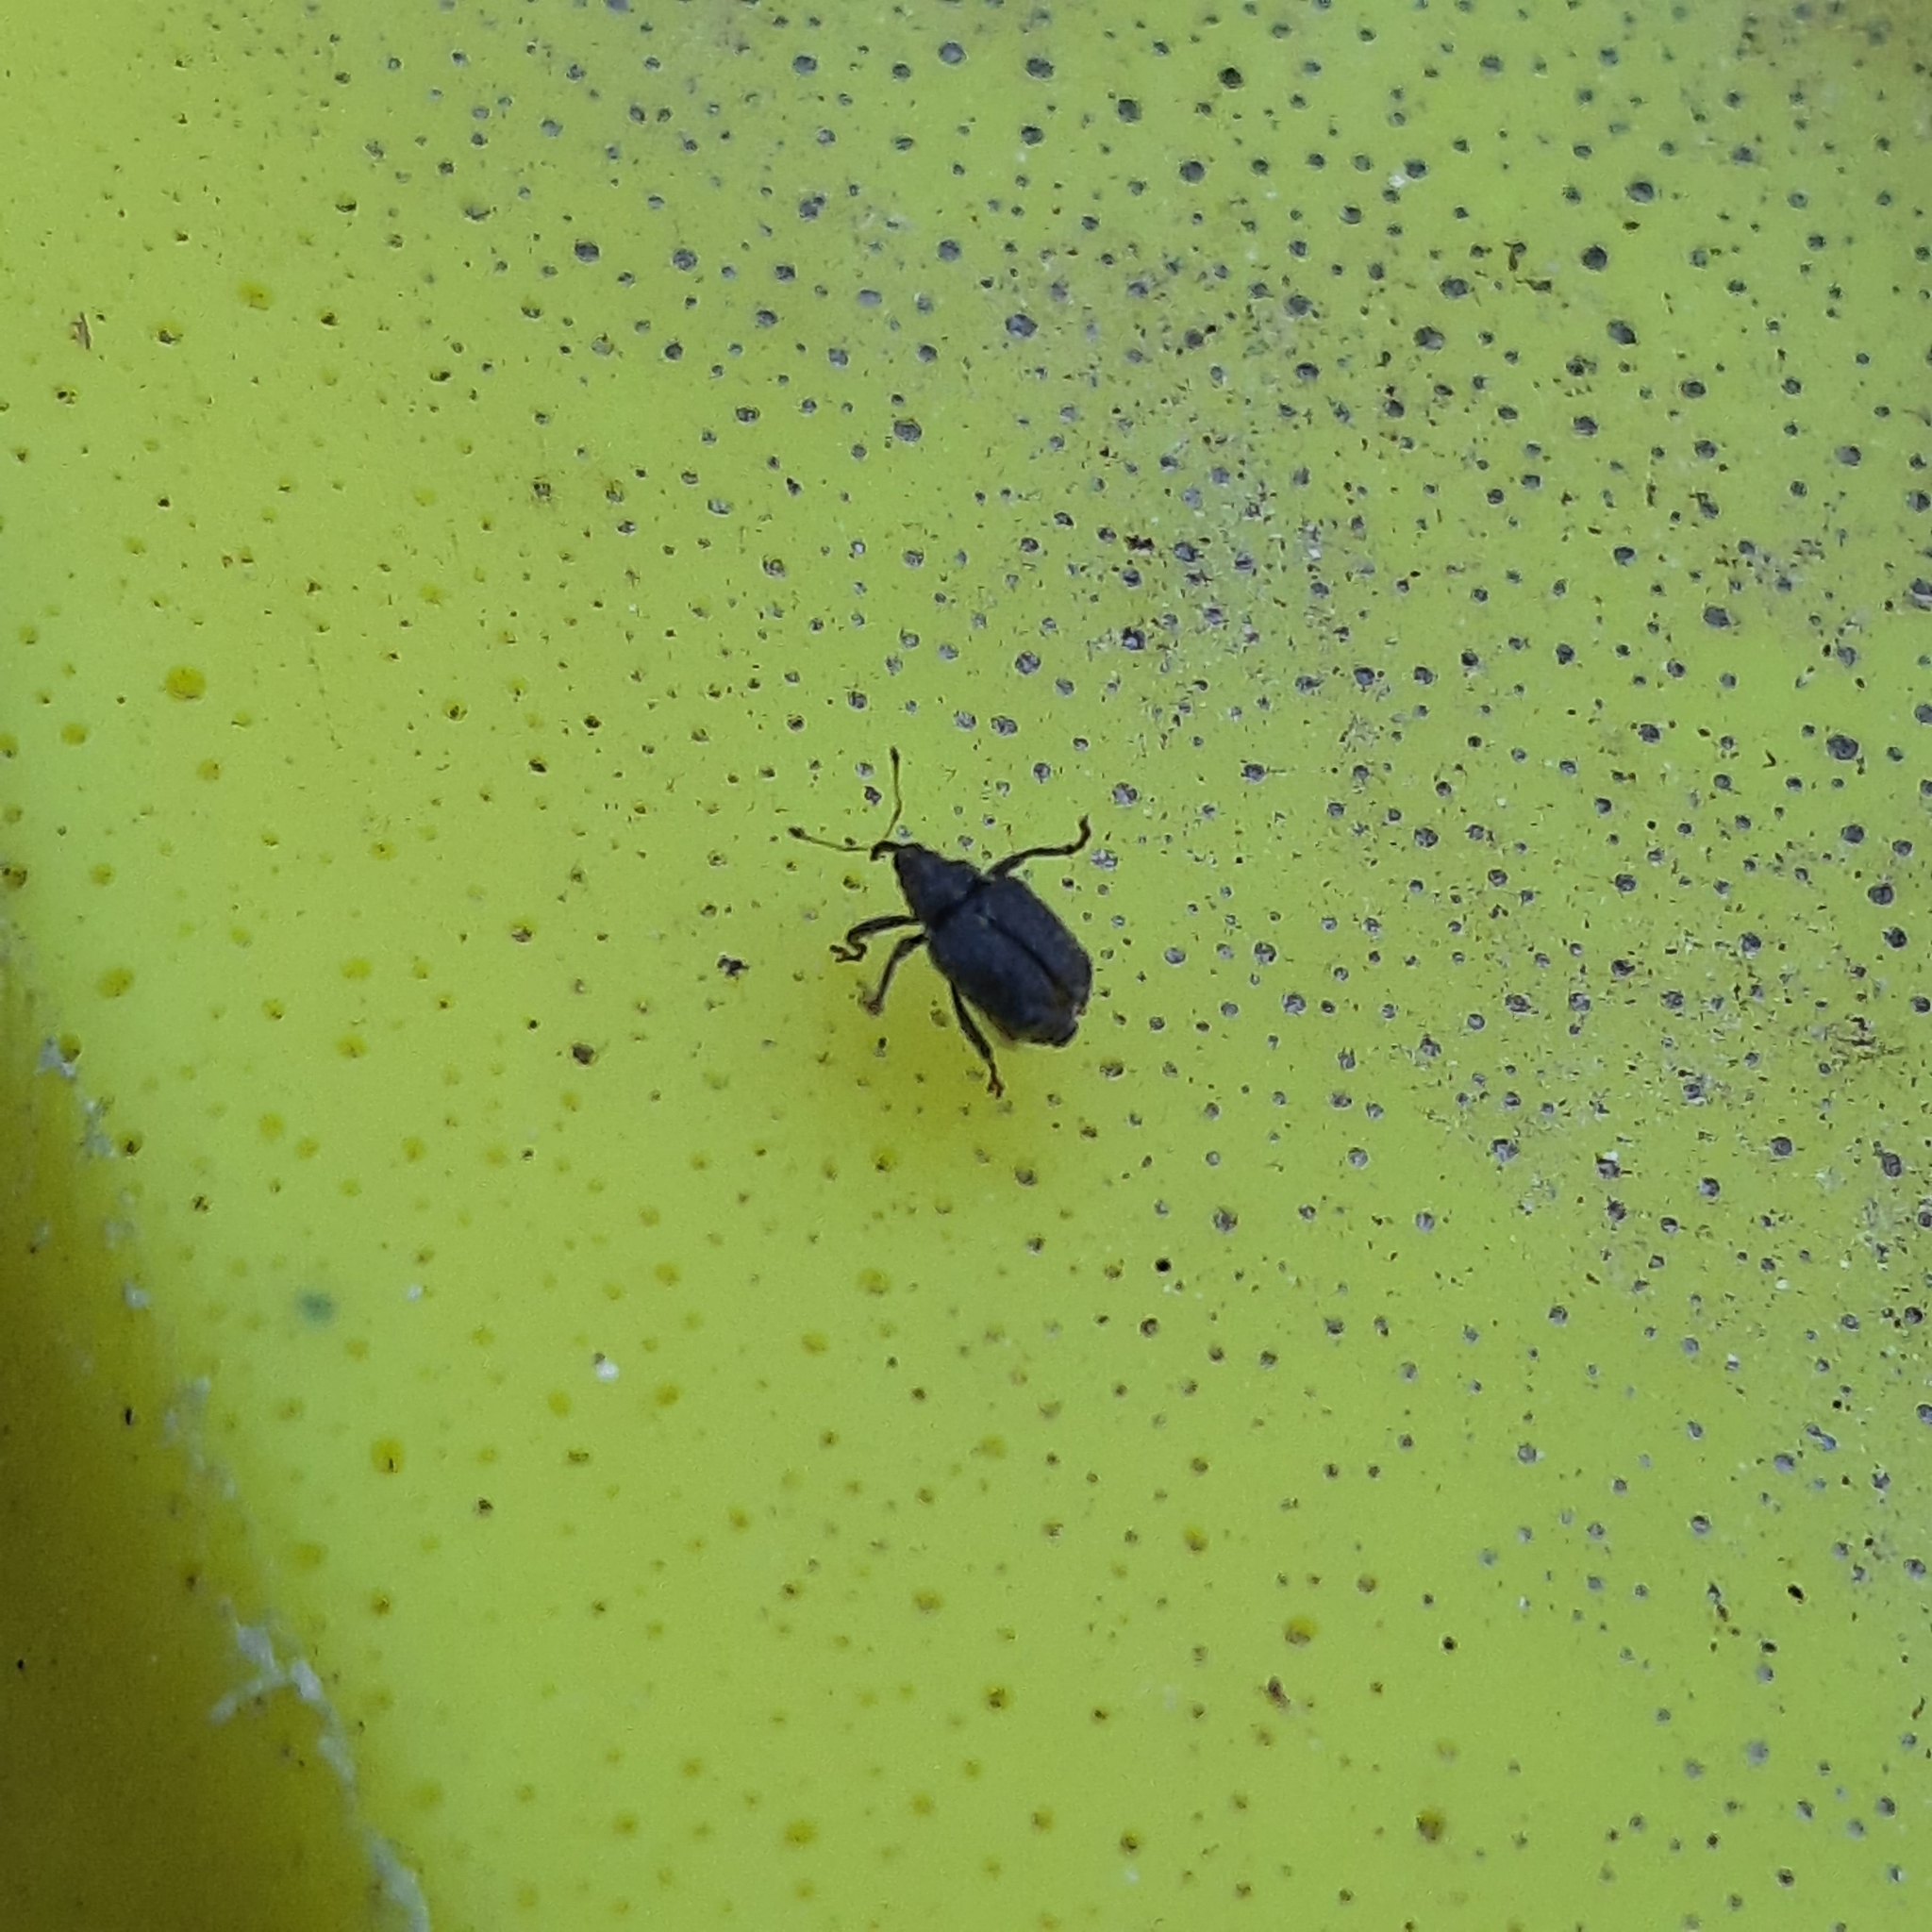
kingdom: Animalia
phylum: Arthropoda
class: Insecta
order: Coleoptera
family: Curculionidae
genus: Ceutorhynchus
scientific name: Ceutorhynchus
